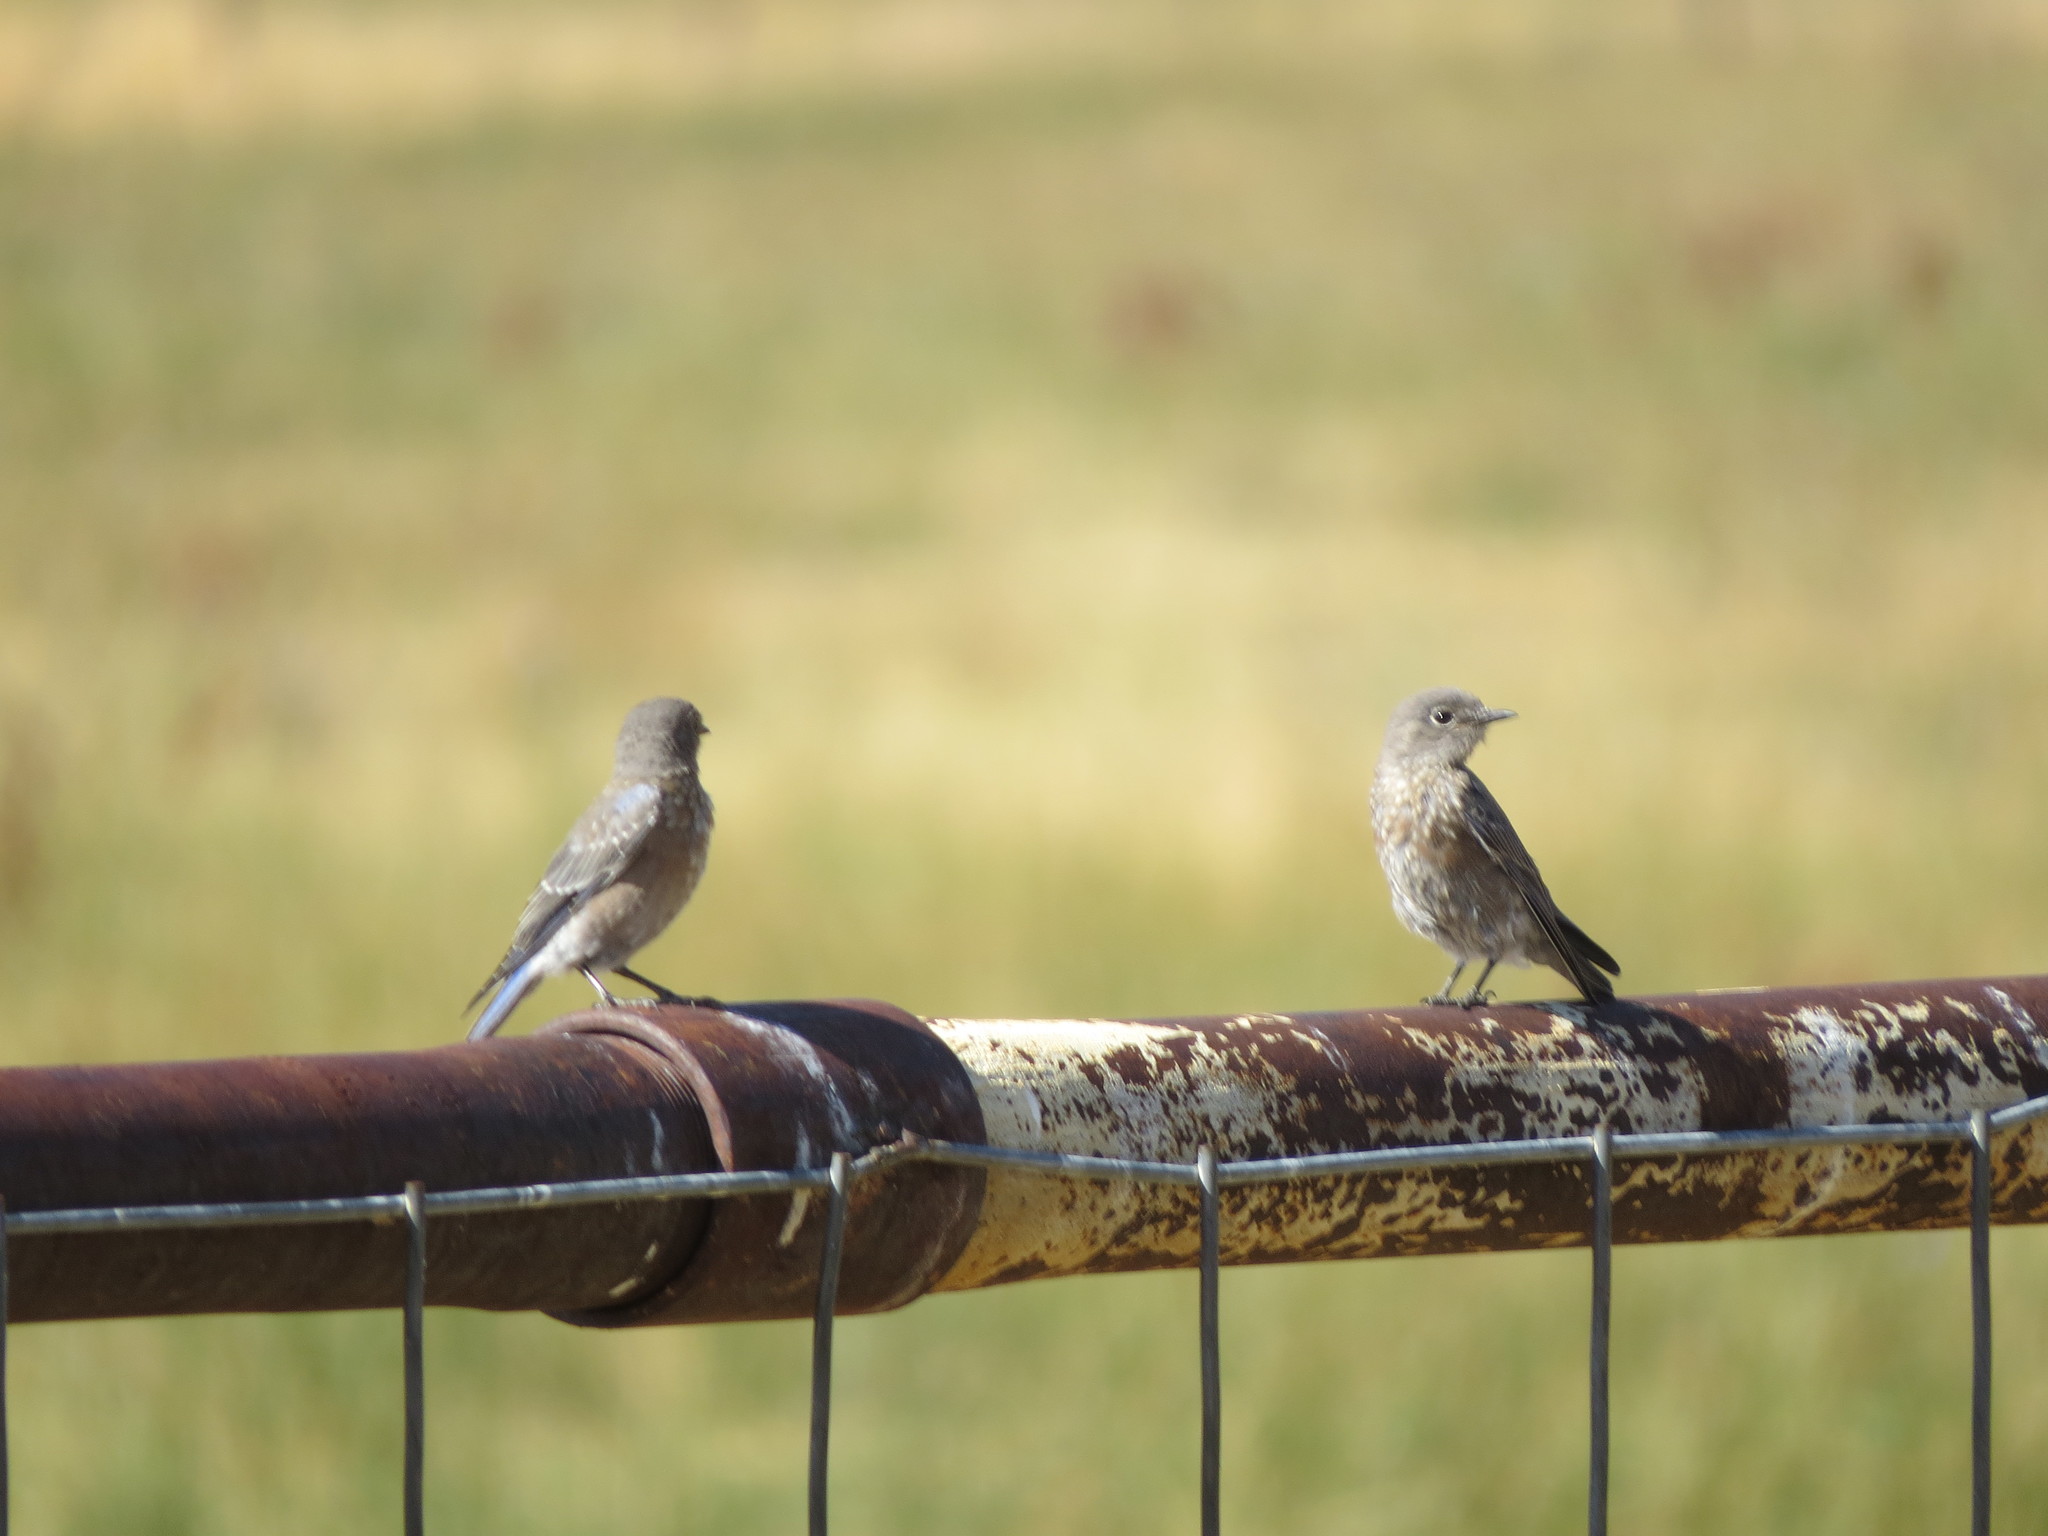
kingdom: Animalia
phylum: Chordata
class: Aves
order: Passeriformes
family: Turdidae
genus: Sialia
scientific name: Sialia mexicana
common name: Western bluebird
